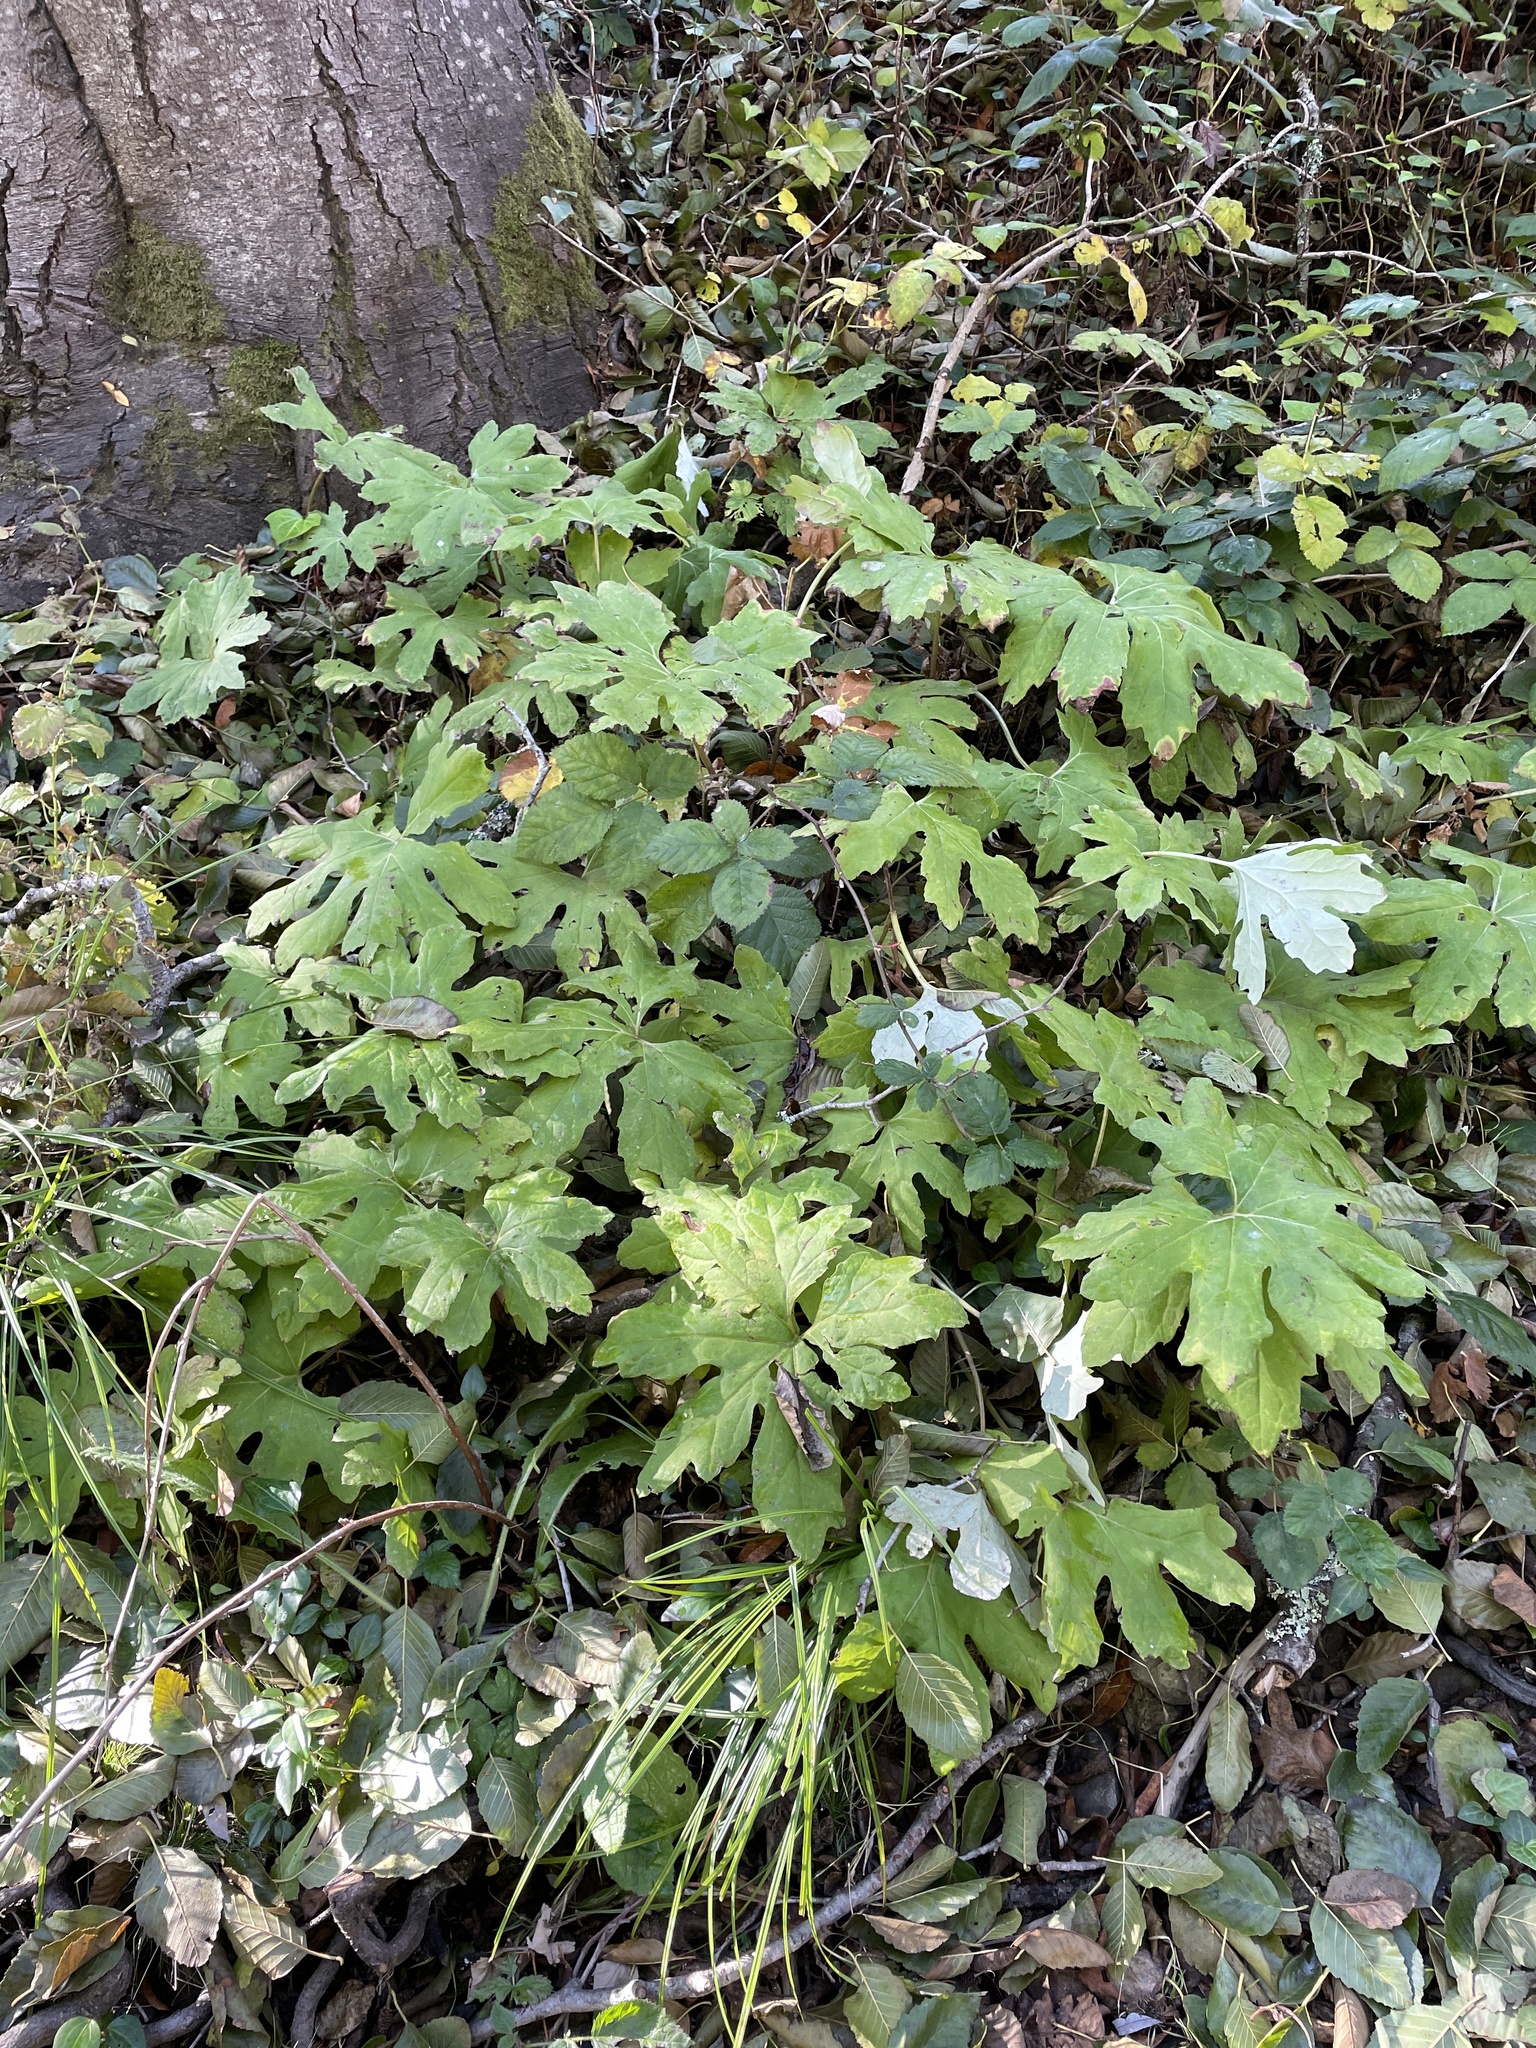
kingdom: Plantae
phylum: Tracheophyta
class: Magnoliopsida
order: Asterales
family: Asteraceae
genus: Petasites
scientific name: Petasites frigidus
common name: Arctic butterbur
